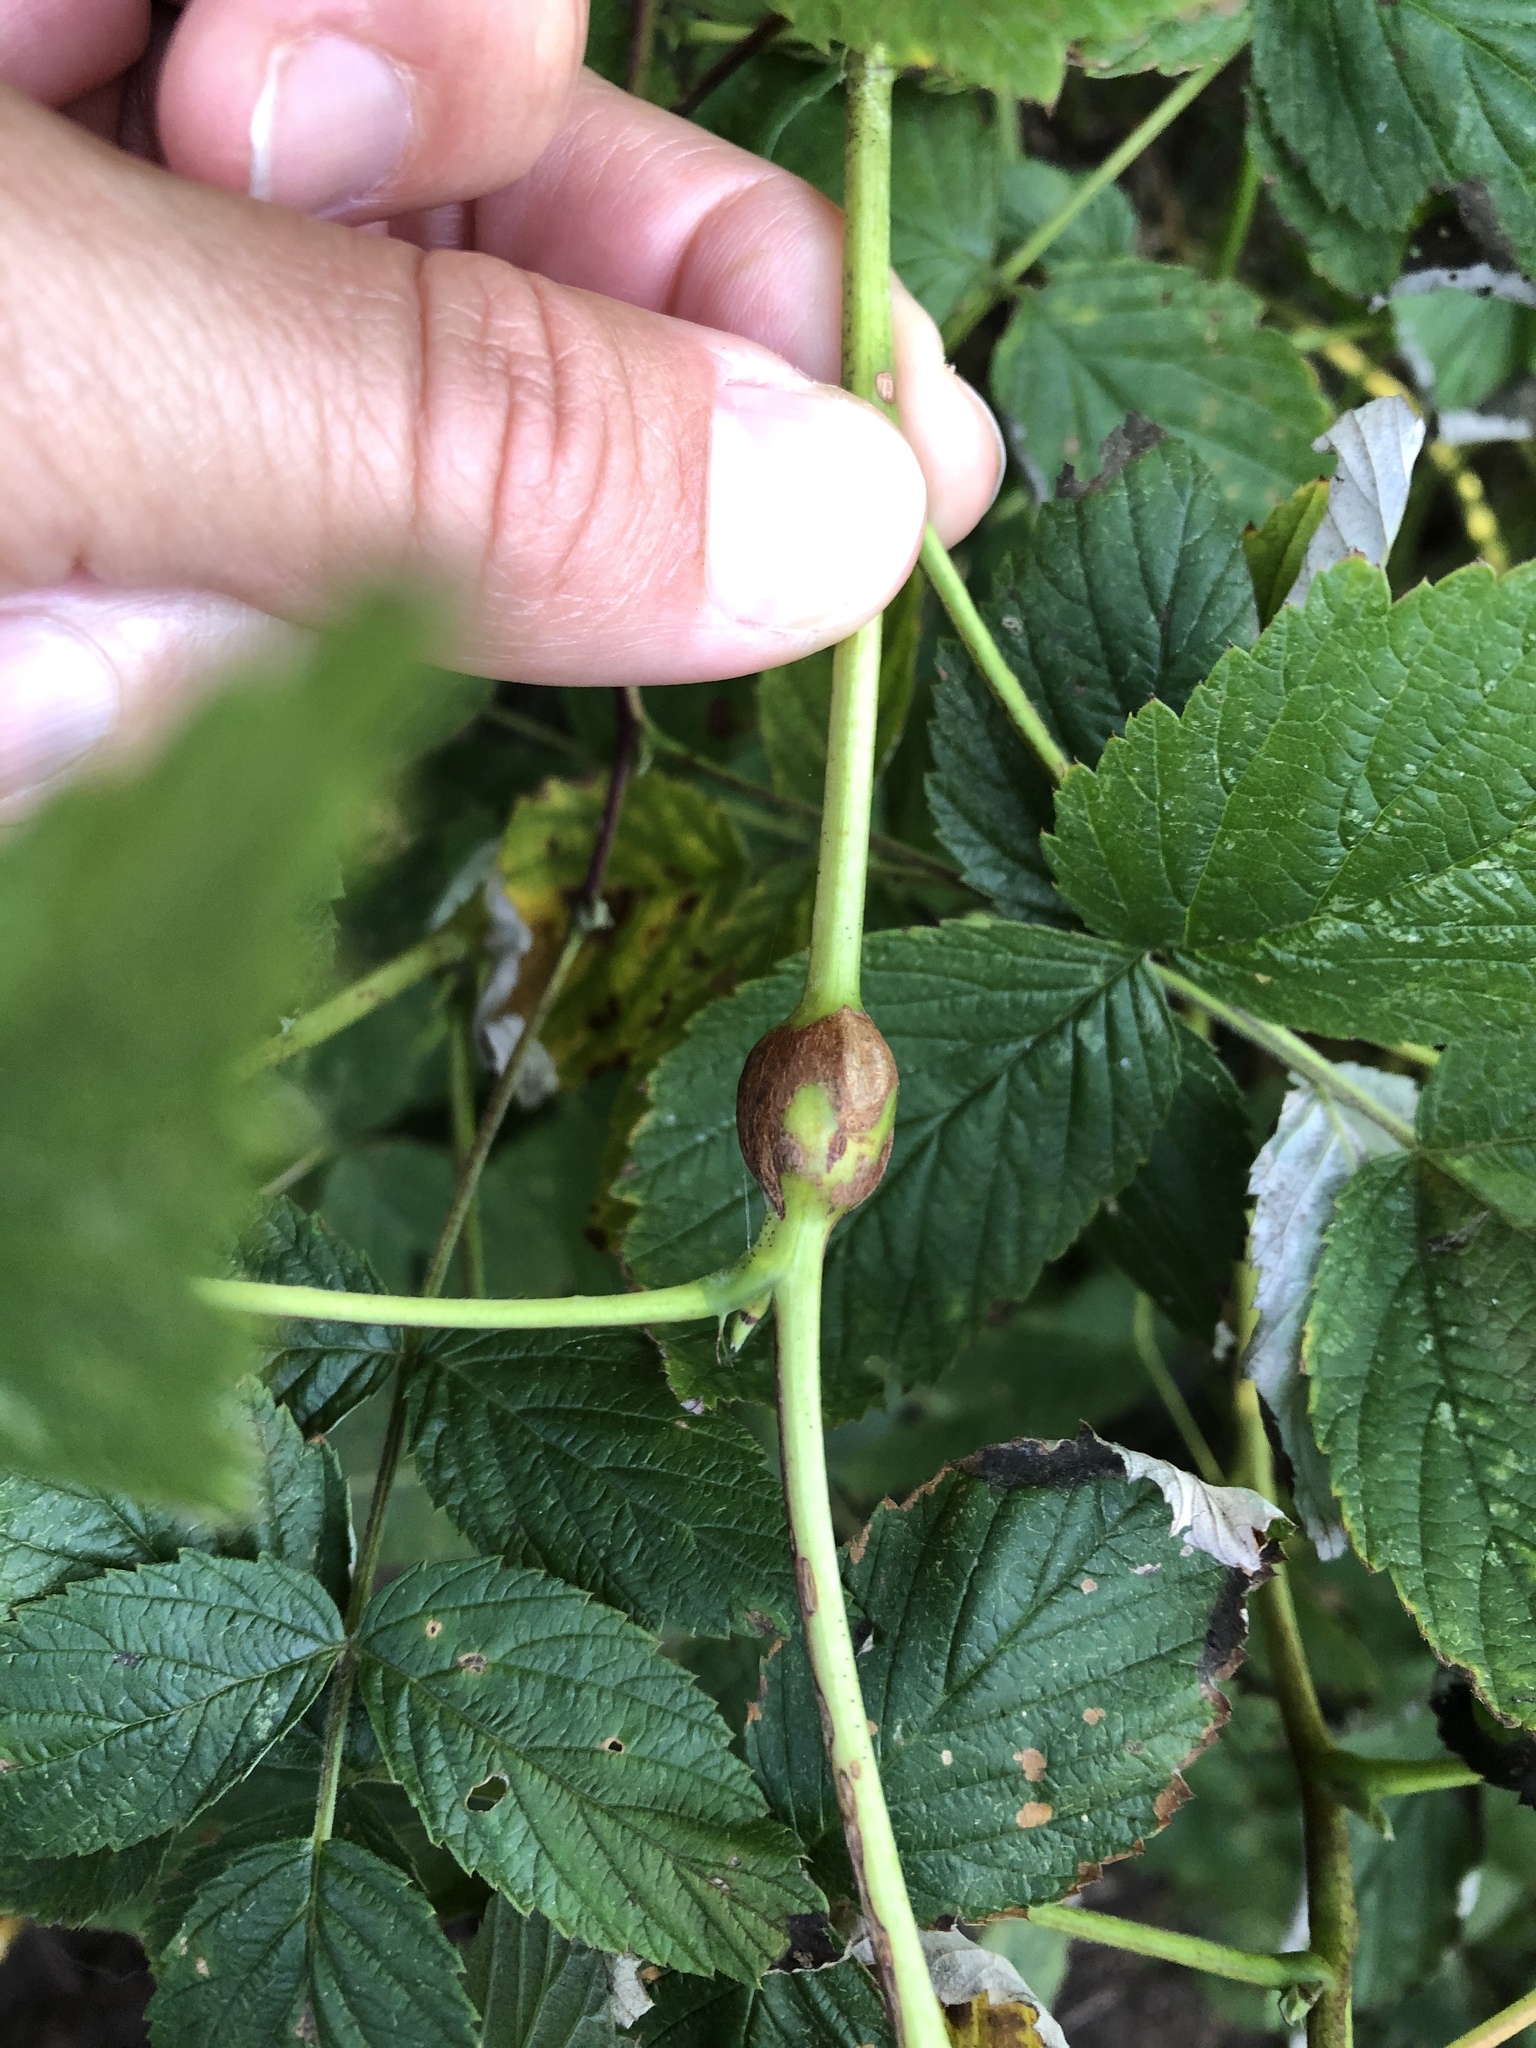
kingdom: Animalia
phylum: Arthropoda
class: Insecta
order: Diptera
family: Cecidomyiidae
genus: Lasioptera
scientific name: Lasioptera rubi
